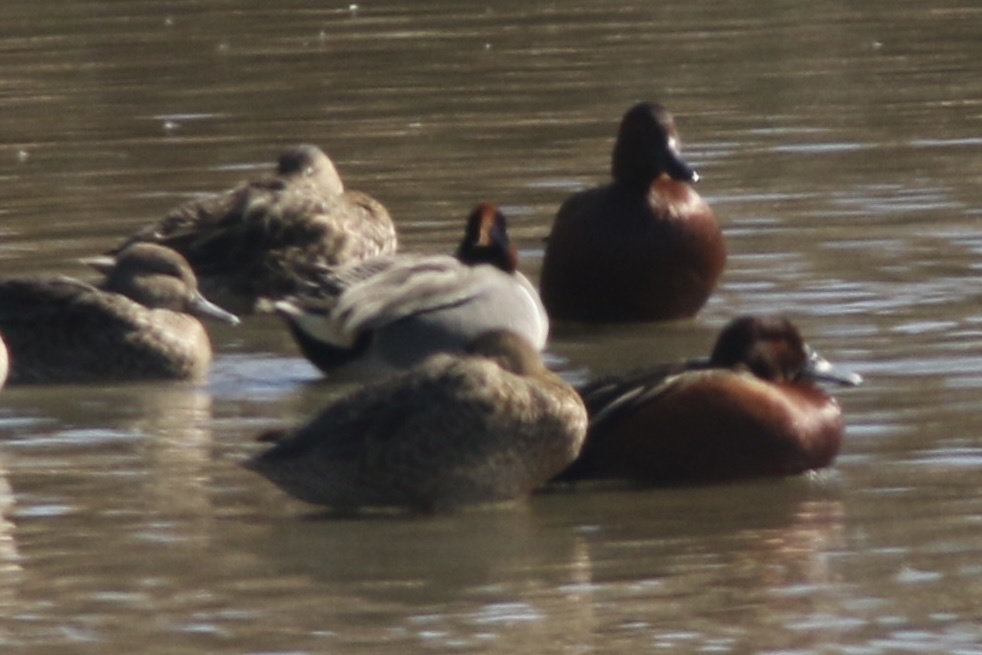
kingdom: Animalia
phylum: Chordata
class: Aves
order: Anseriformes
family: Anatidae
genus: Spatula
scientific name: Spatula cyanoptera
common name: Cinnamon teal
